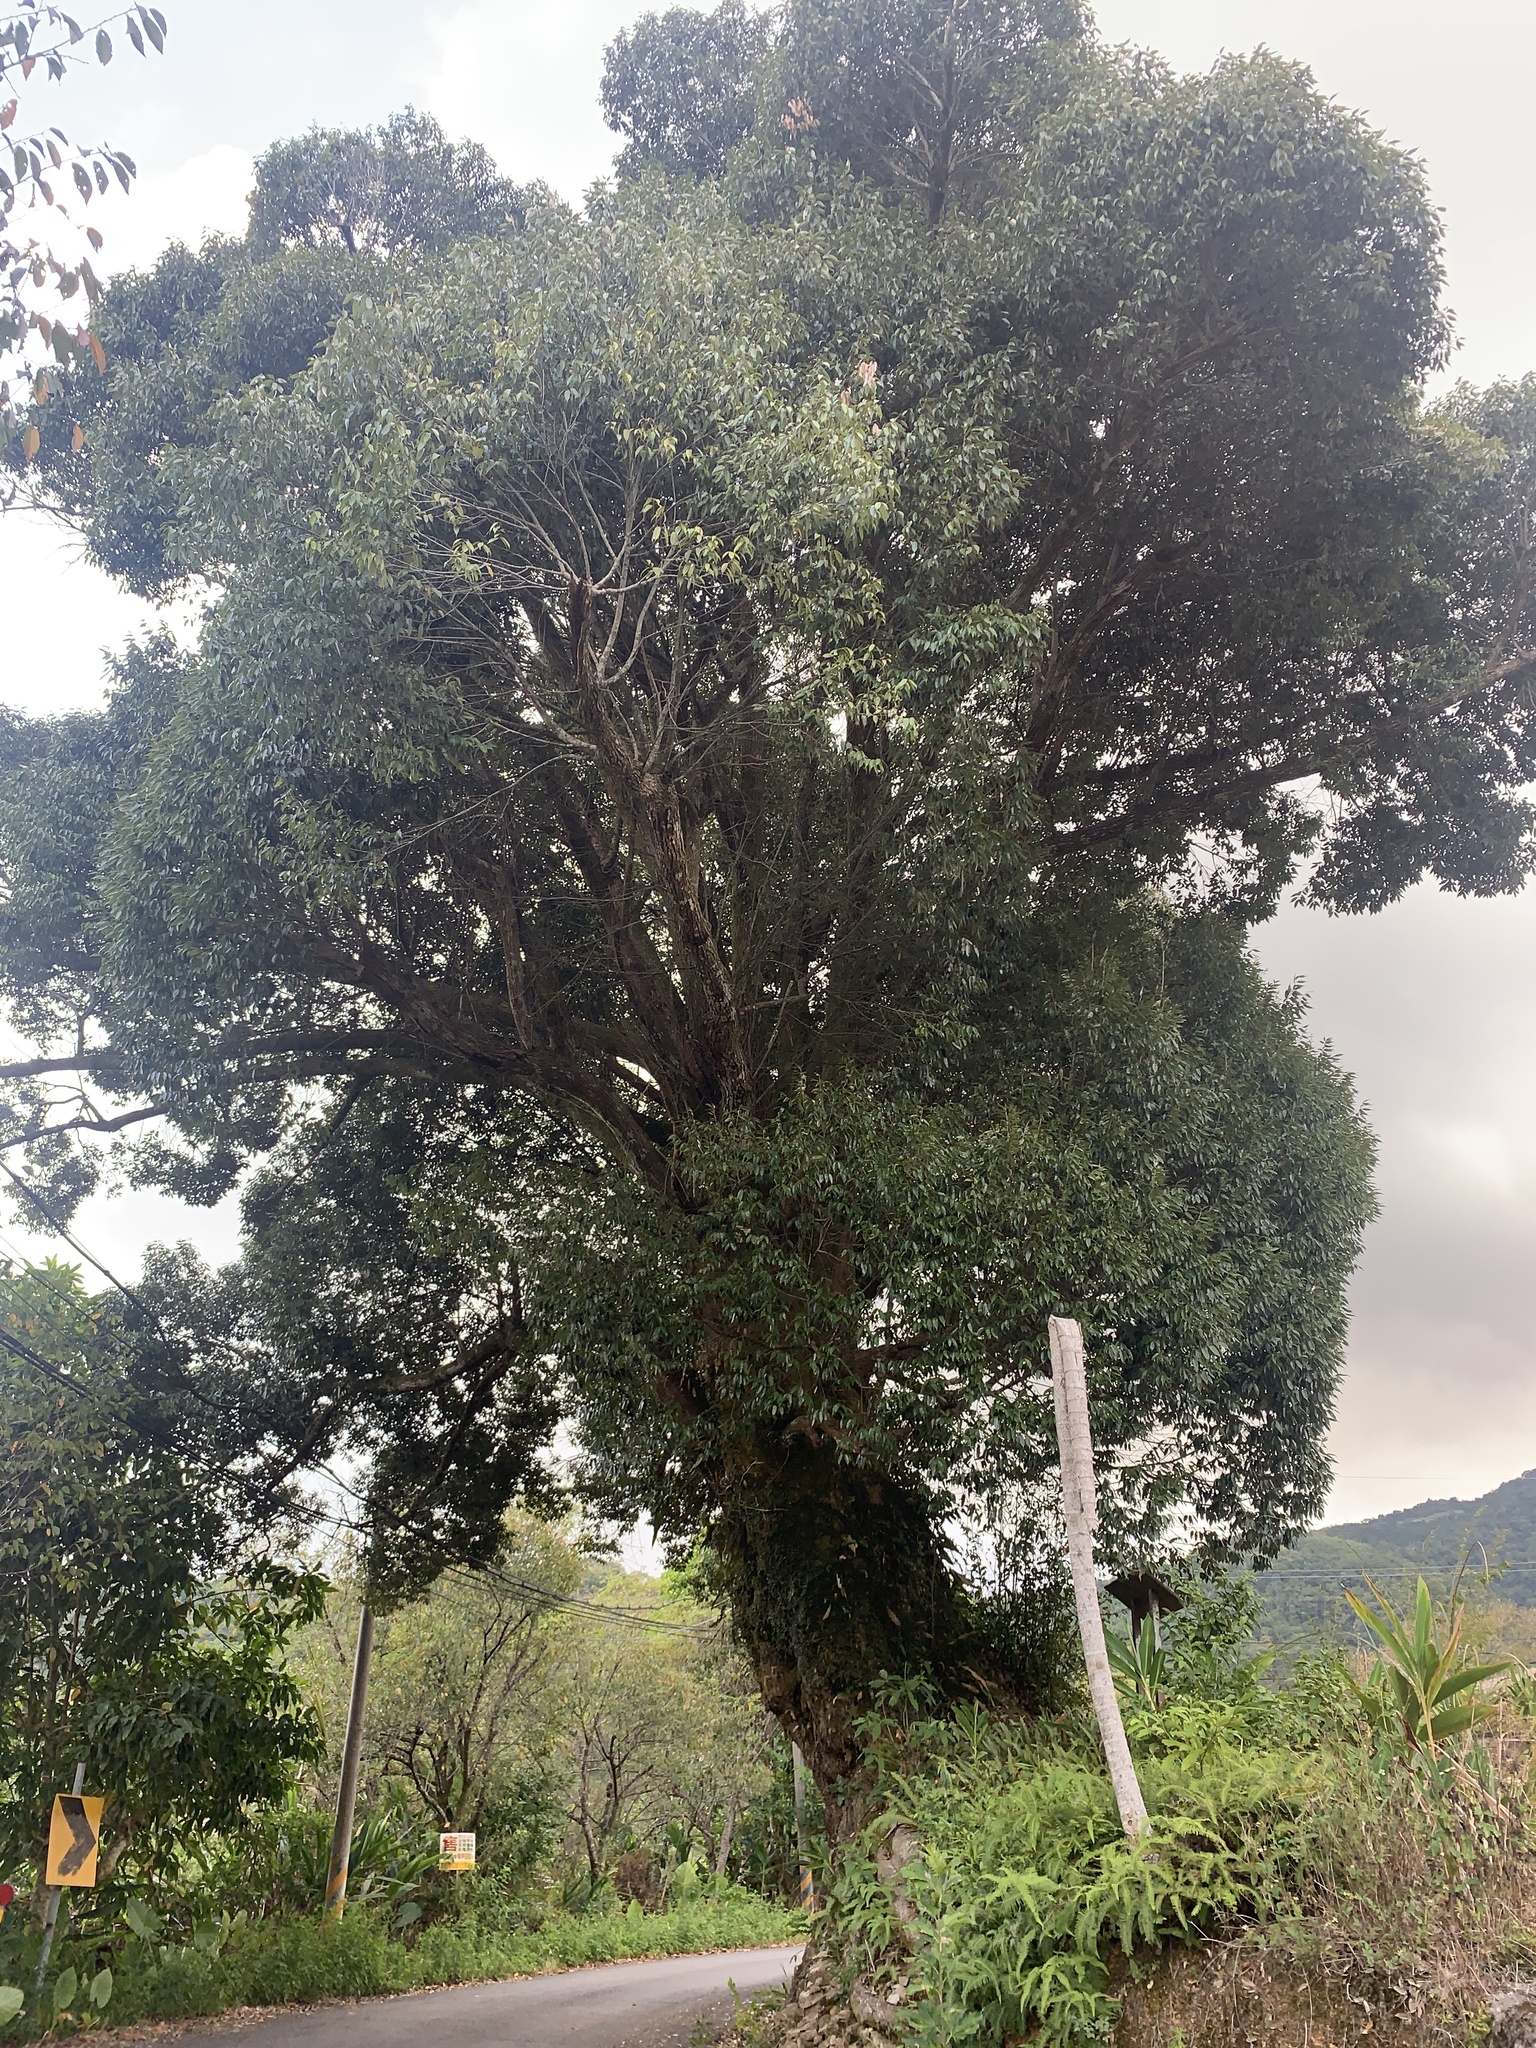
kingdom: Plantae
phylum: Tracheophyta
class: Magnoliopsida
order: Fagales
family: Fagaceae
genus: Lithocarpus
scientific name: Lithocarpus uraianus
